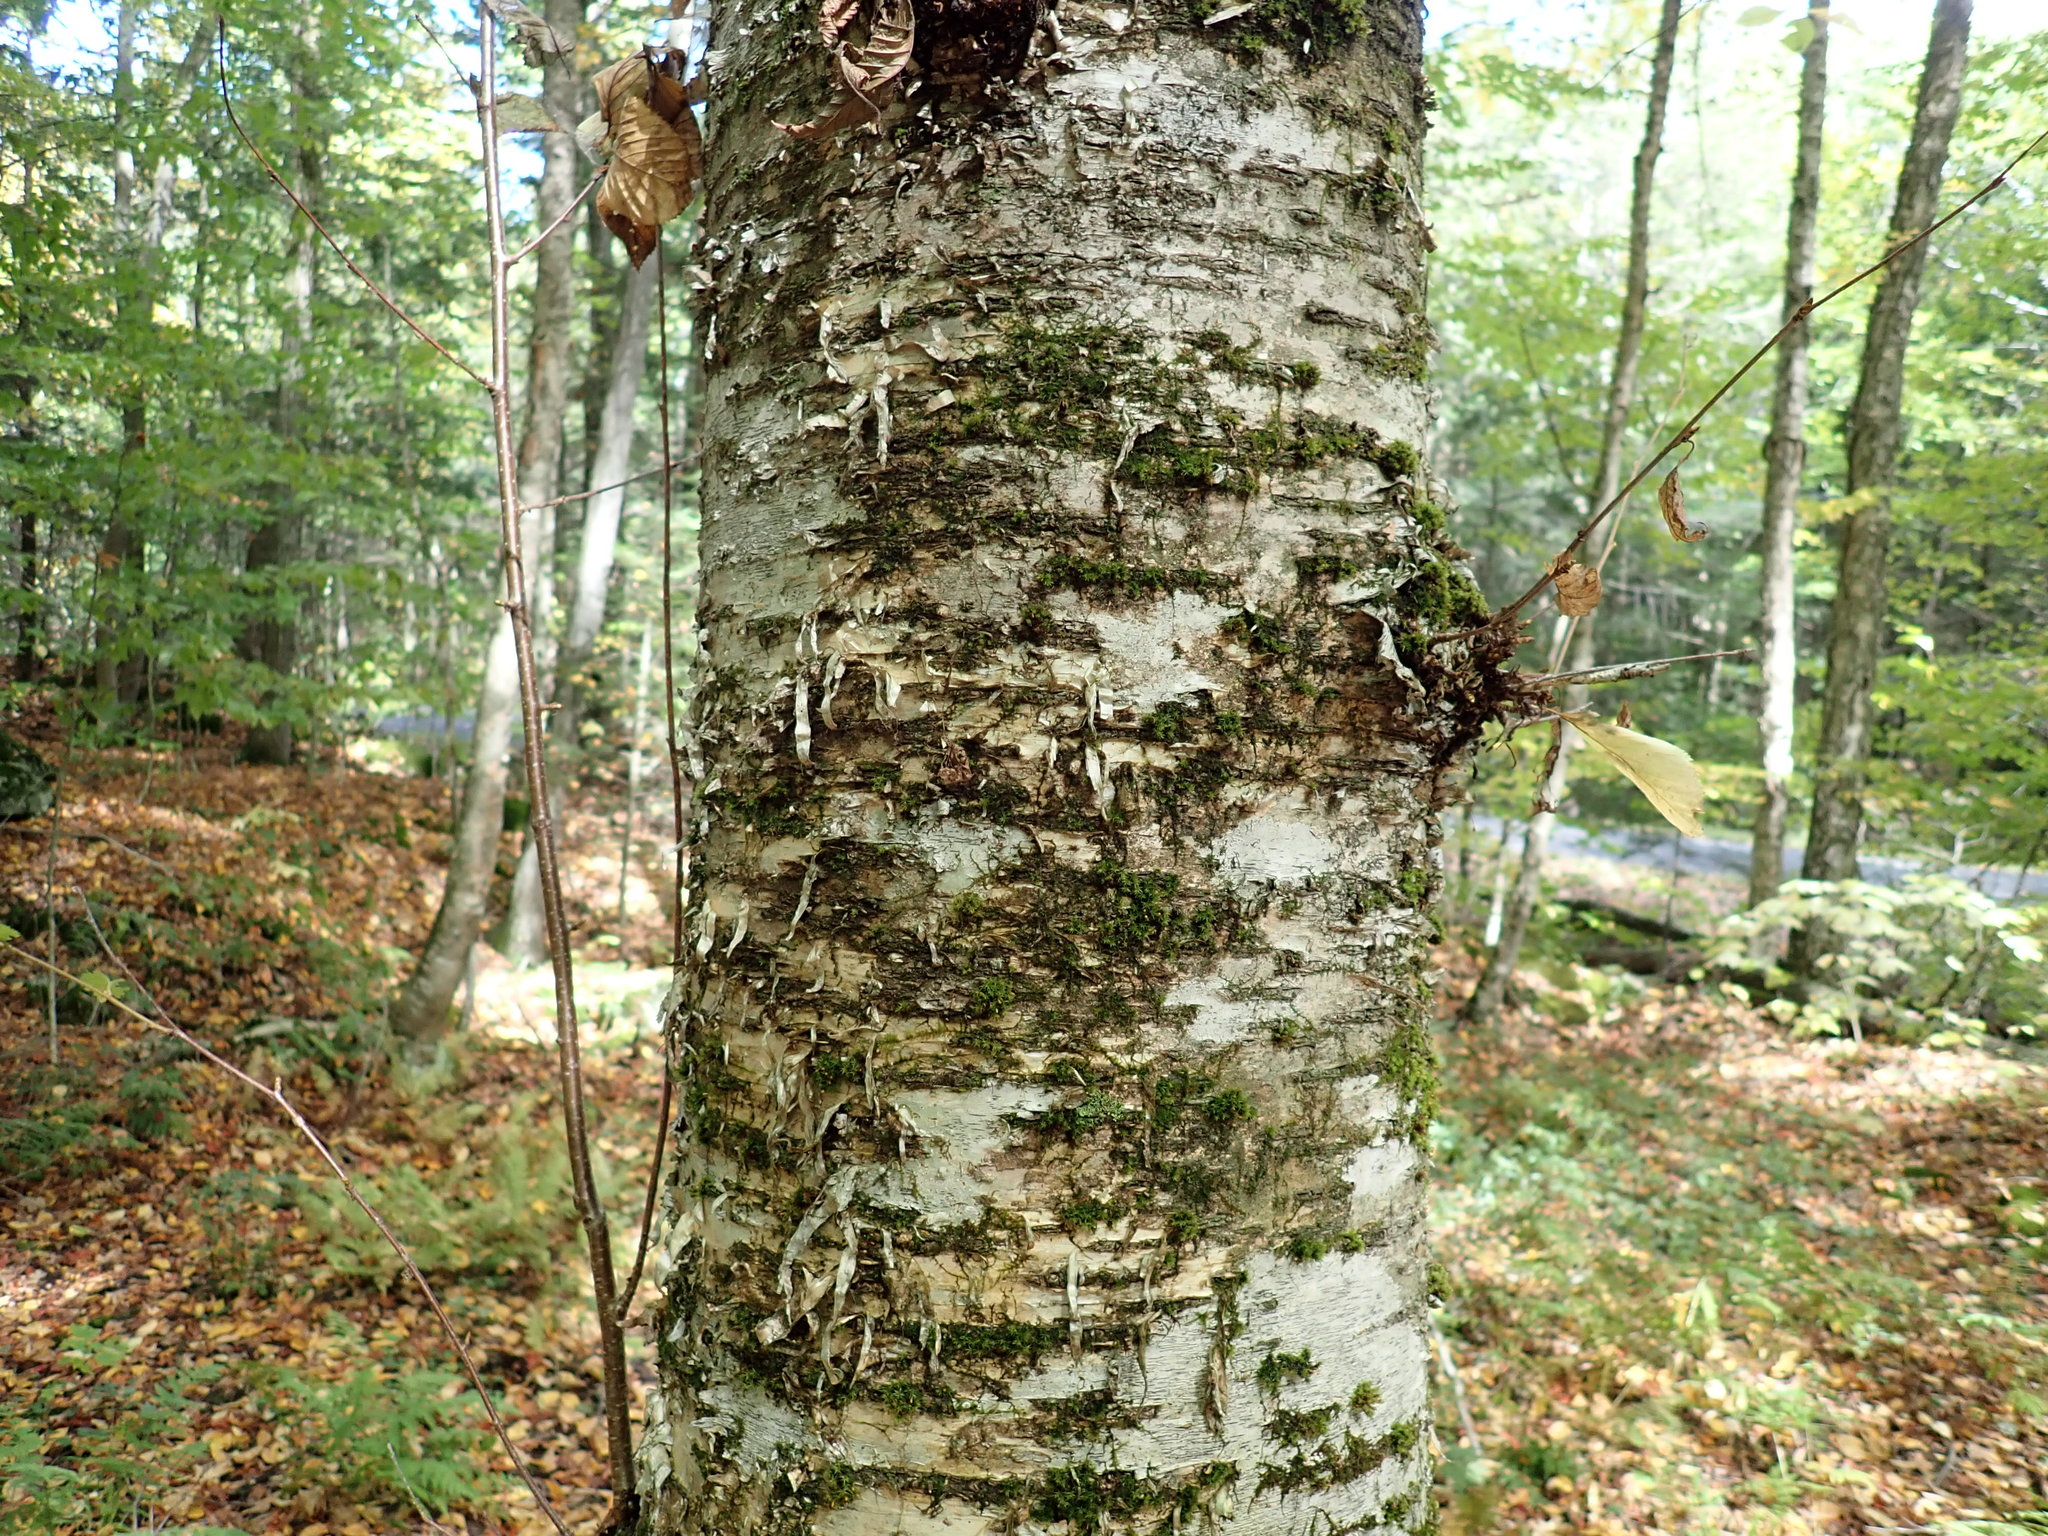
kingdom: Plantae
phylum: Tracheophyta
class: Magnoliopsida
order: Fagales
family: Betulaceae
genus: Betula
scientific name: Betula alleghaniensis
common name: Yellow birch
